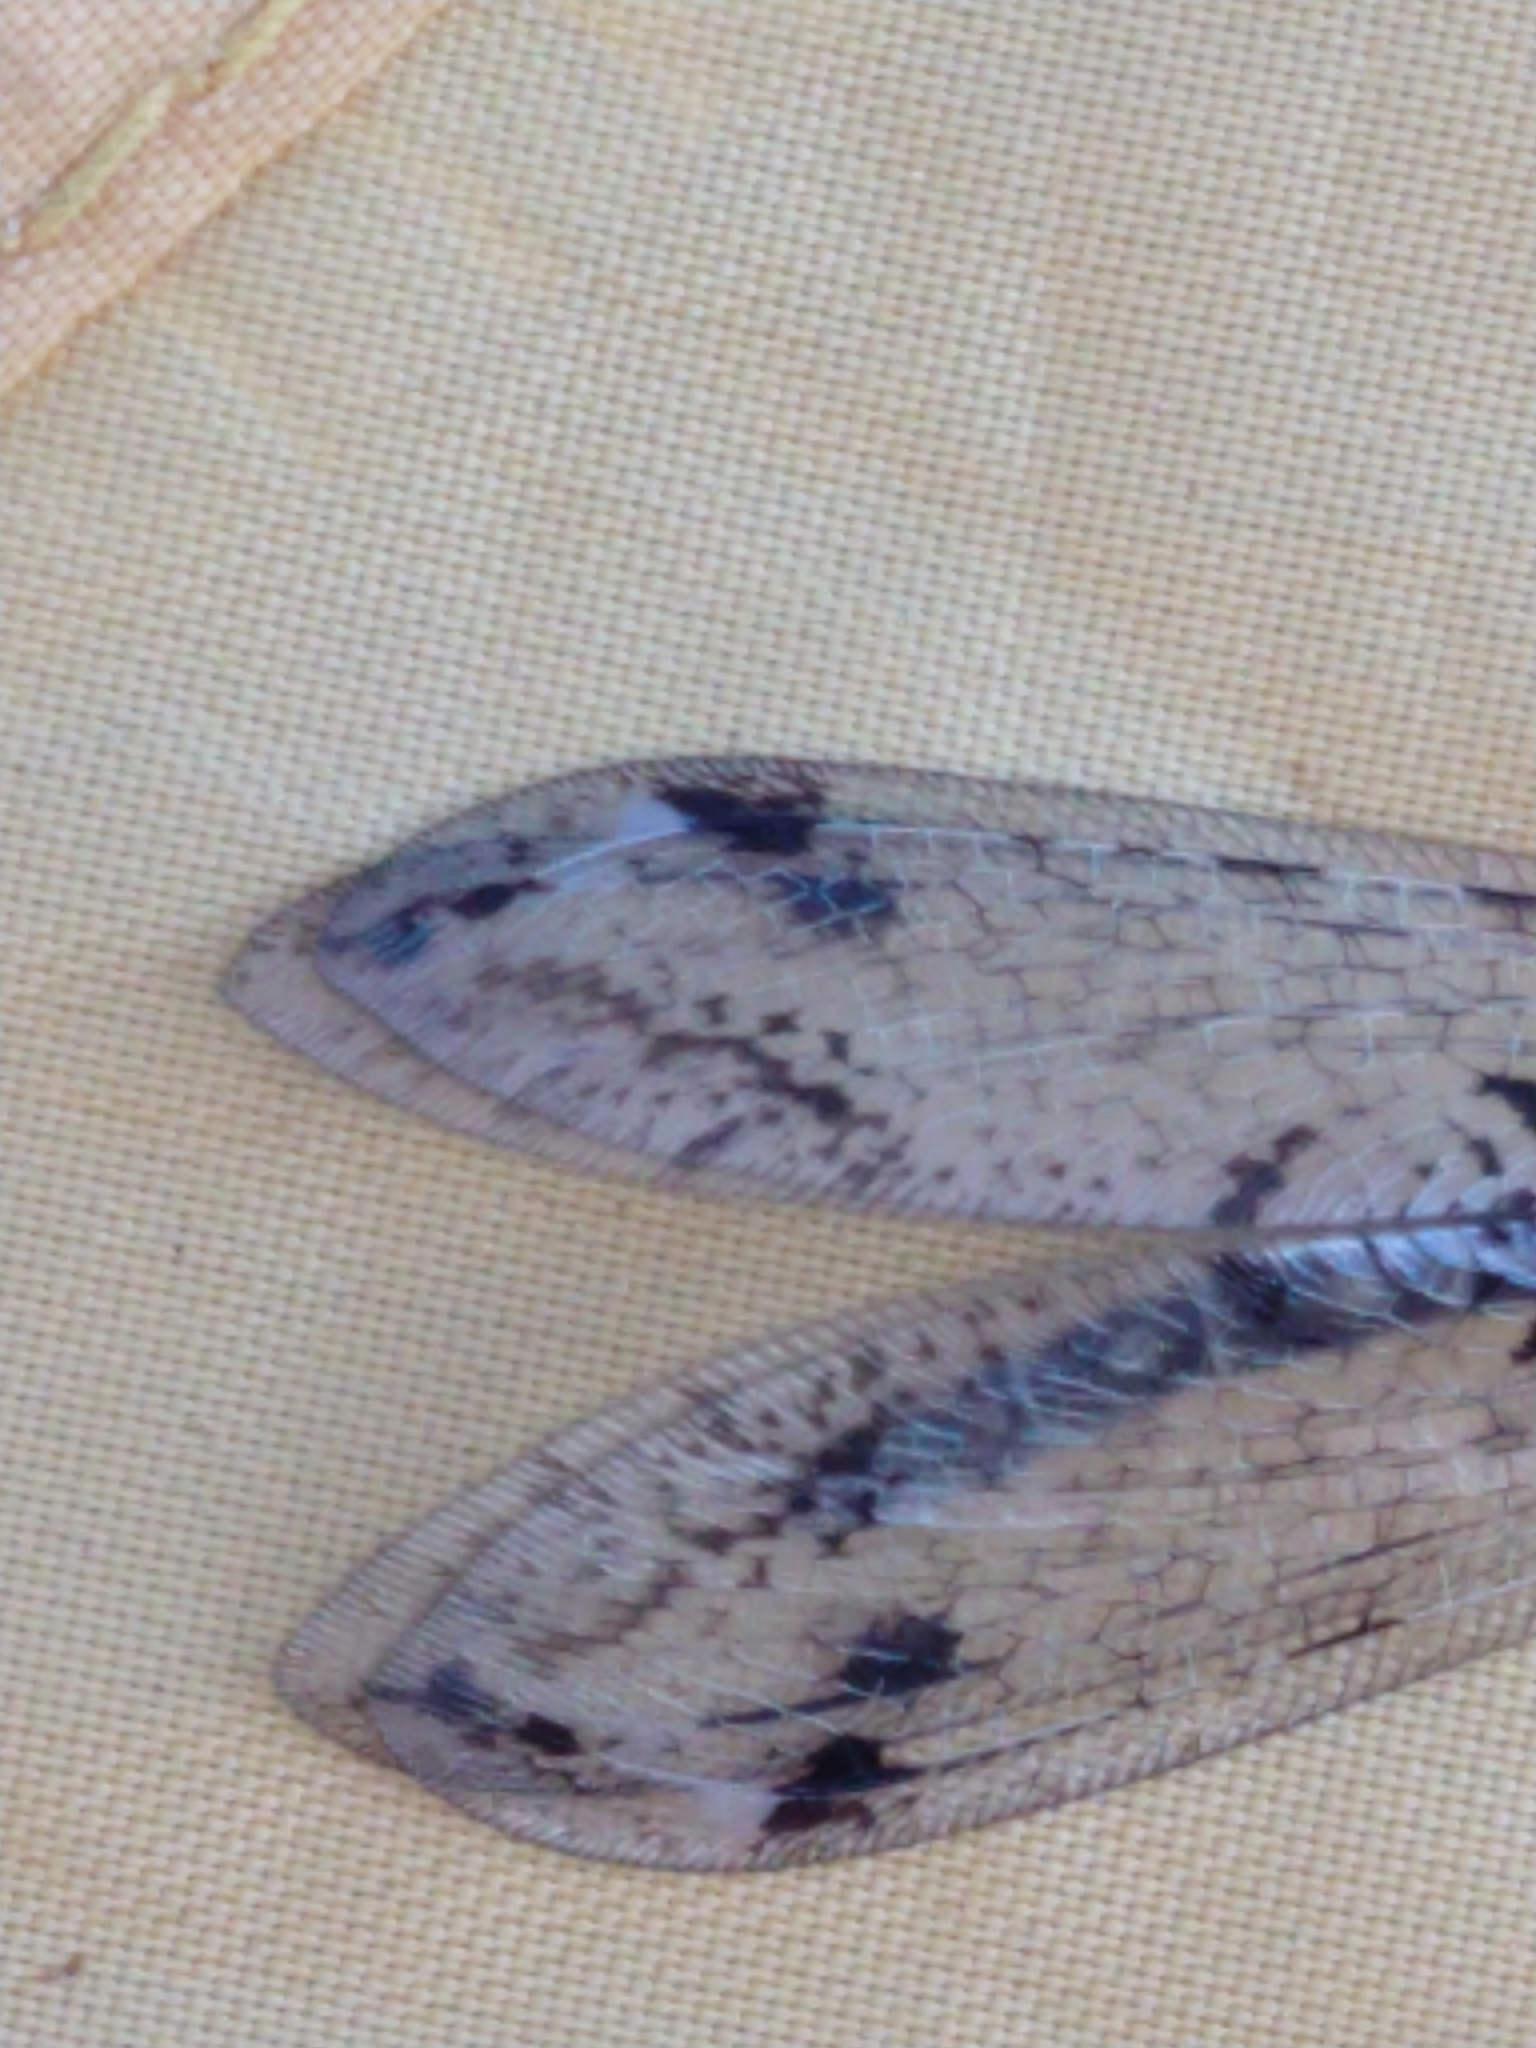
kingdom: Animalia
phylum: Arthropoda
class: Insecta
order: Neuroptera
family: Myrmeleontidae
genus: Dendroleon
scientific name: Dendroleon speciosus
